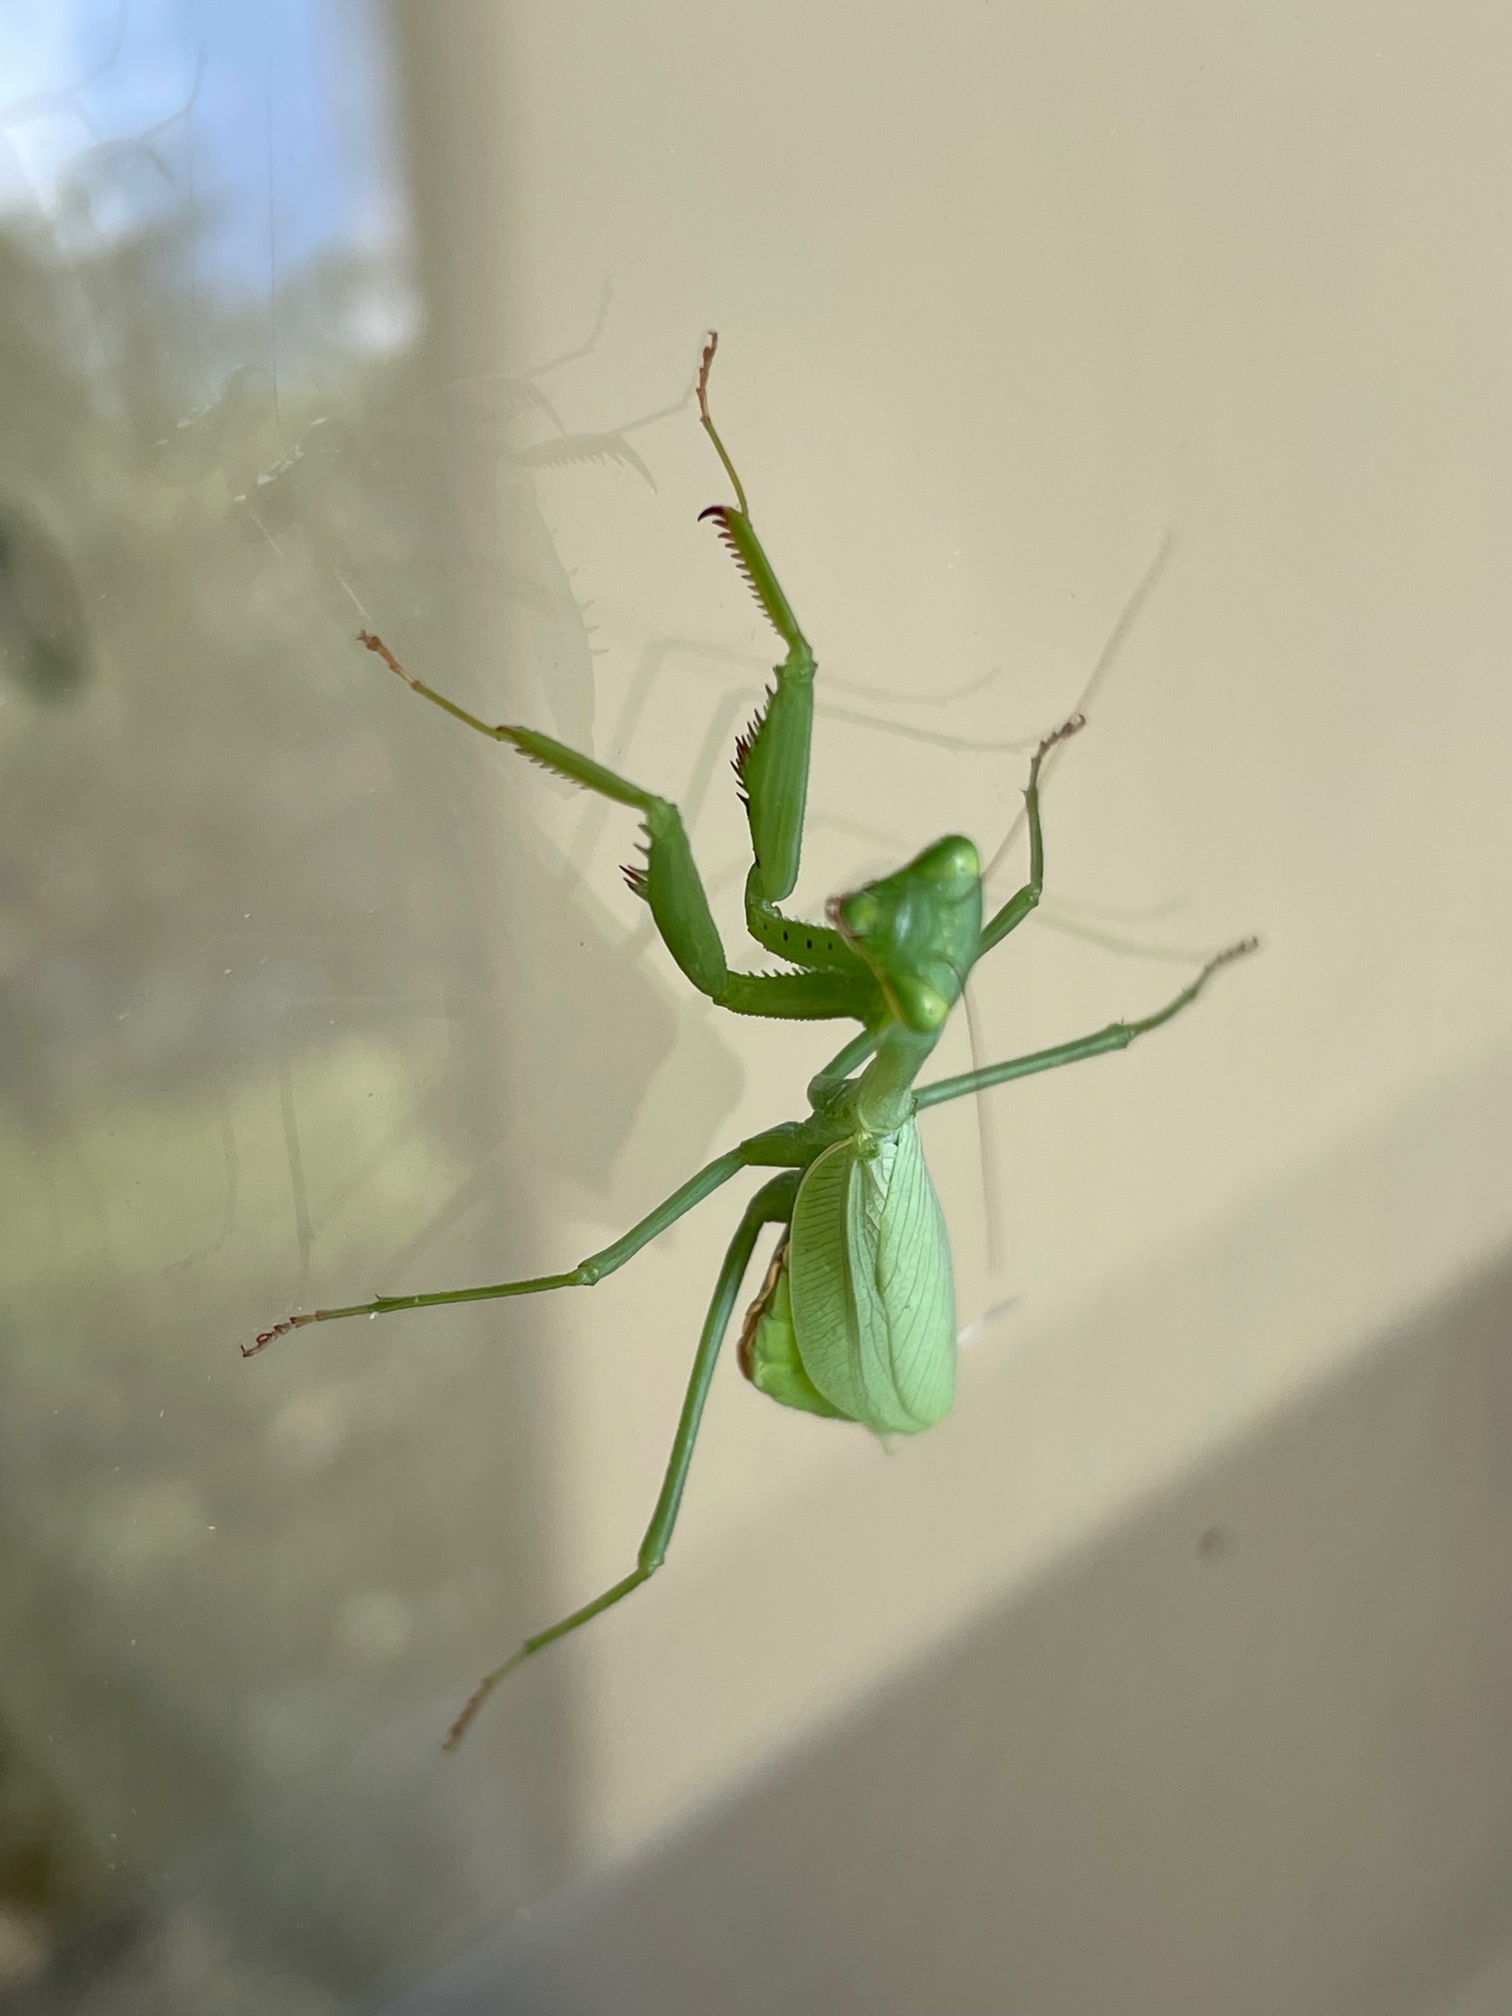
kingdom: Animalia
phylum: Arthropoda
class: Insecta
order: Mantodea
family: Miomantidae
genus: Miomantis
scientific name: Miomantis caffra
